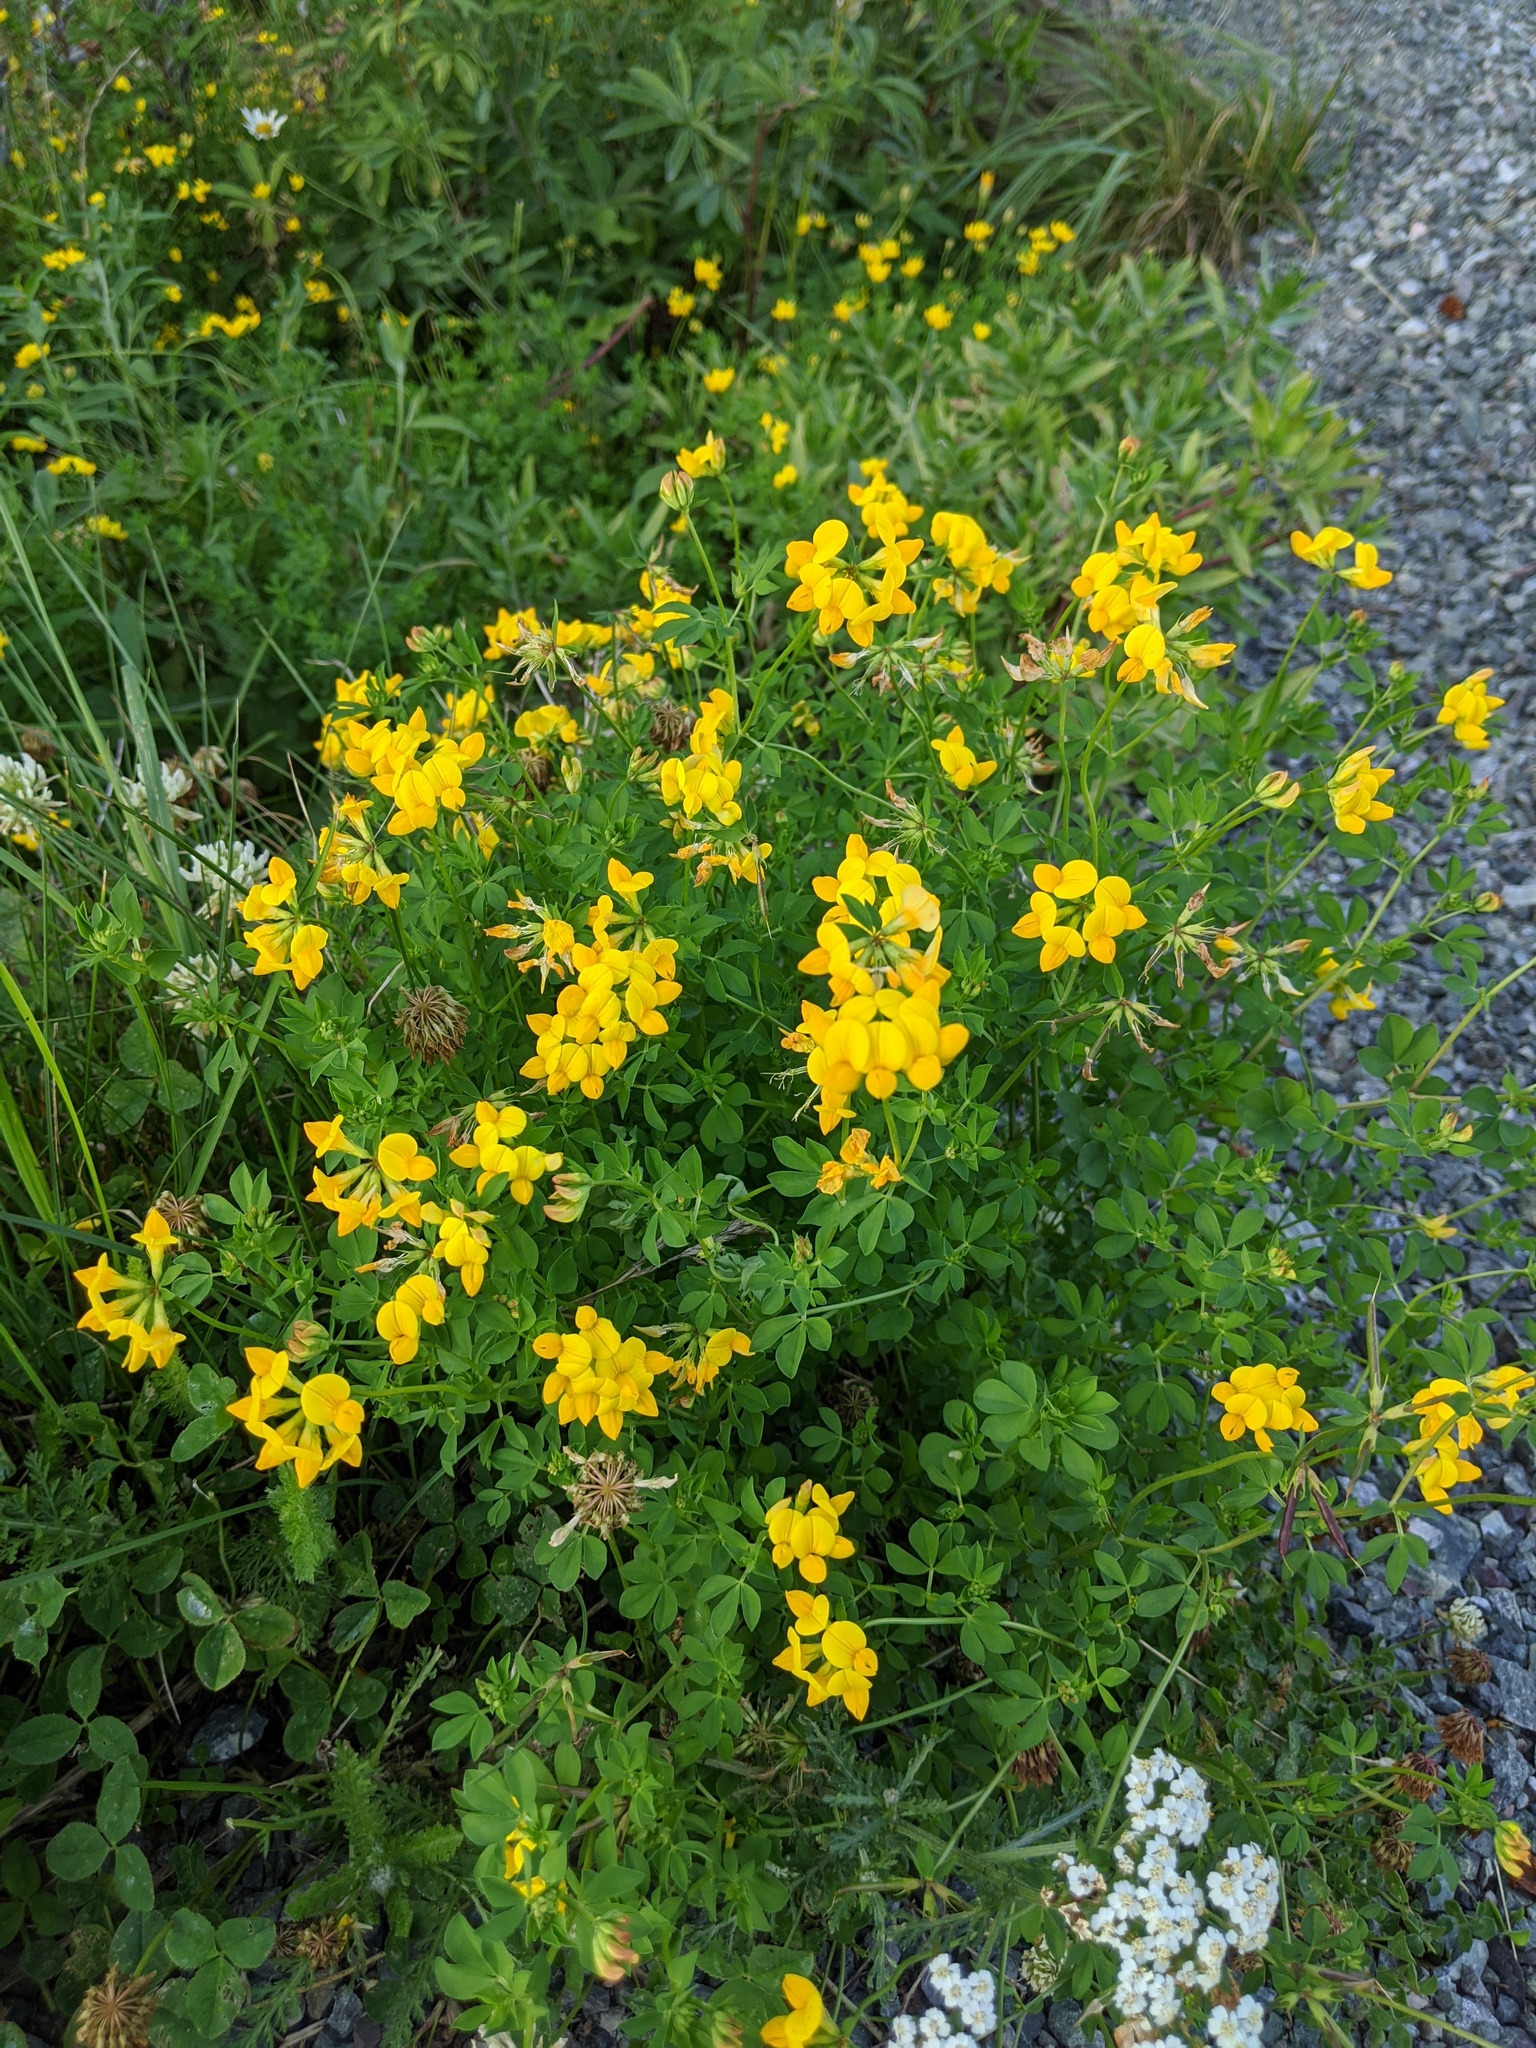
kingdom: Plantae
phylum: Tracheophyta
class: Magnoliopsida
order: Fabales
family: Fabaceae
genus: Lotus
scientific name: Lotus corniculatus
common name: Common bird's-foot-trefoil
